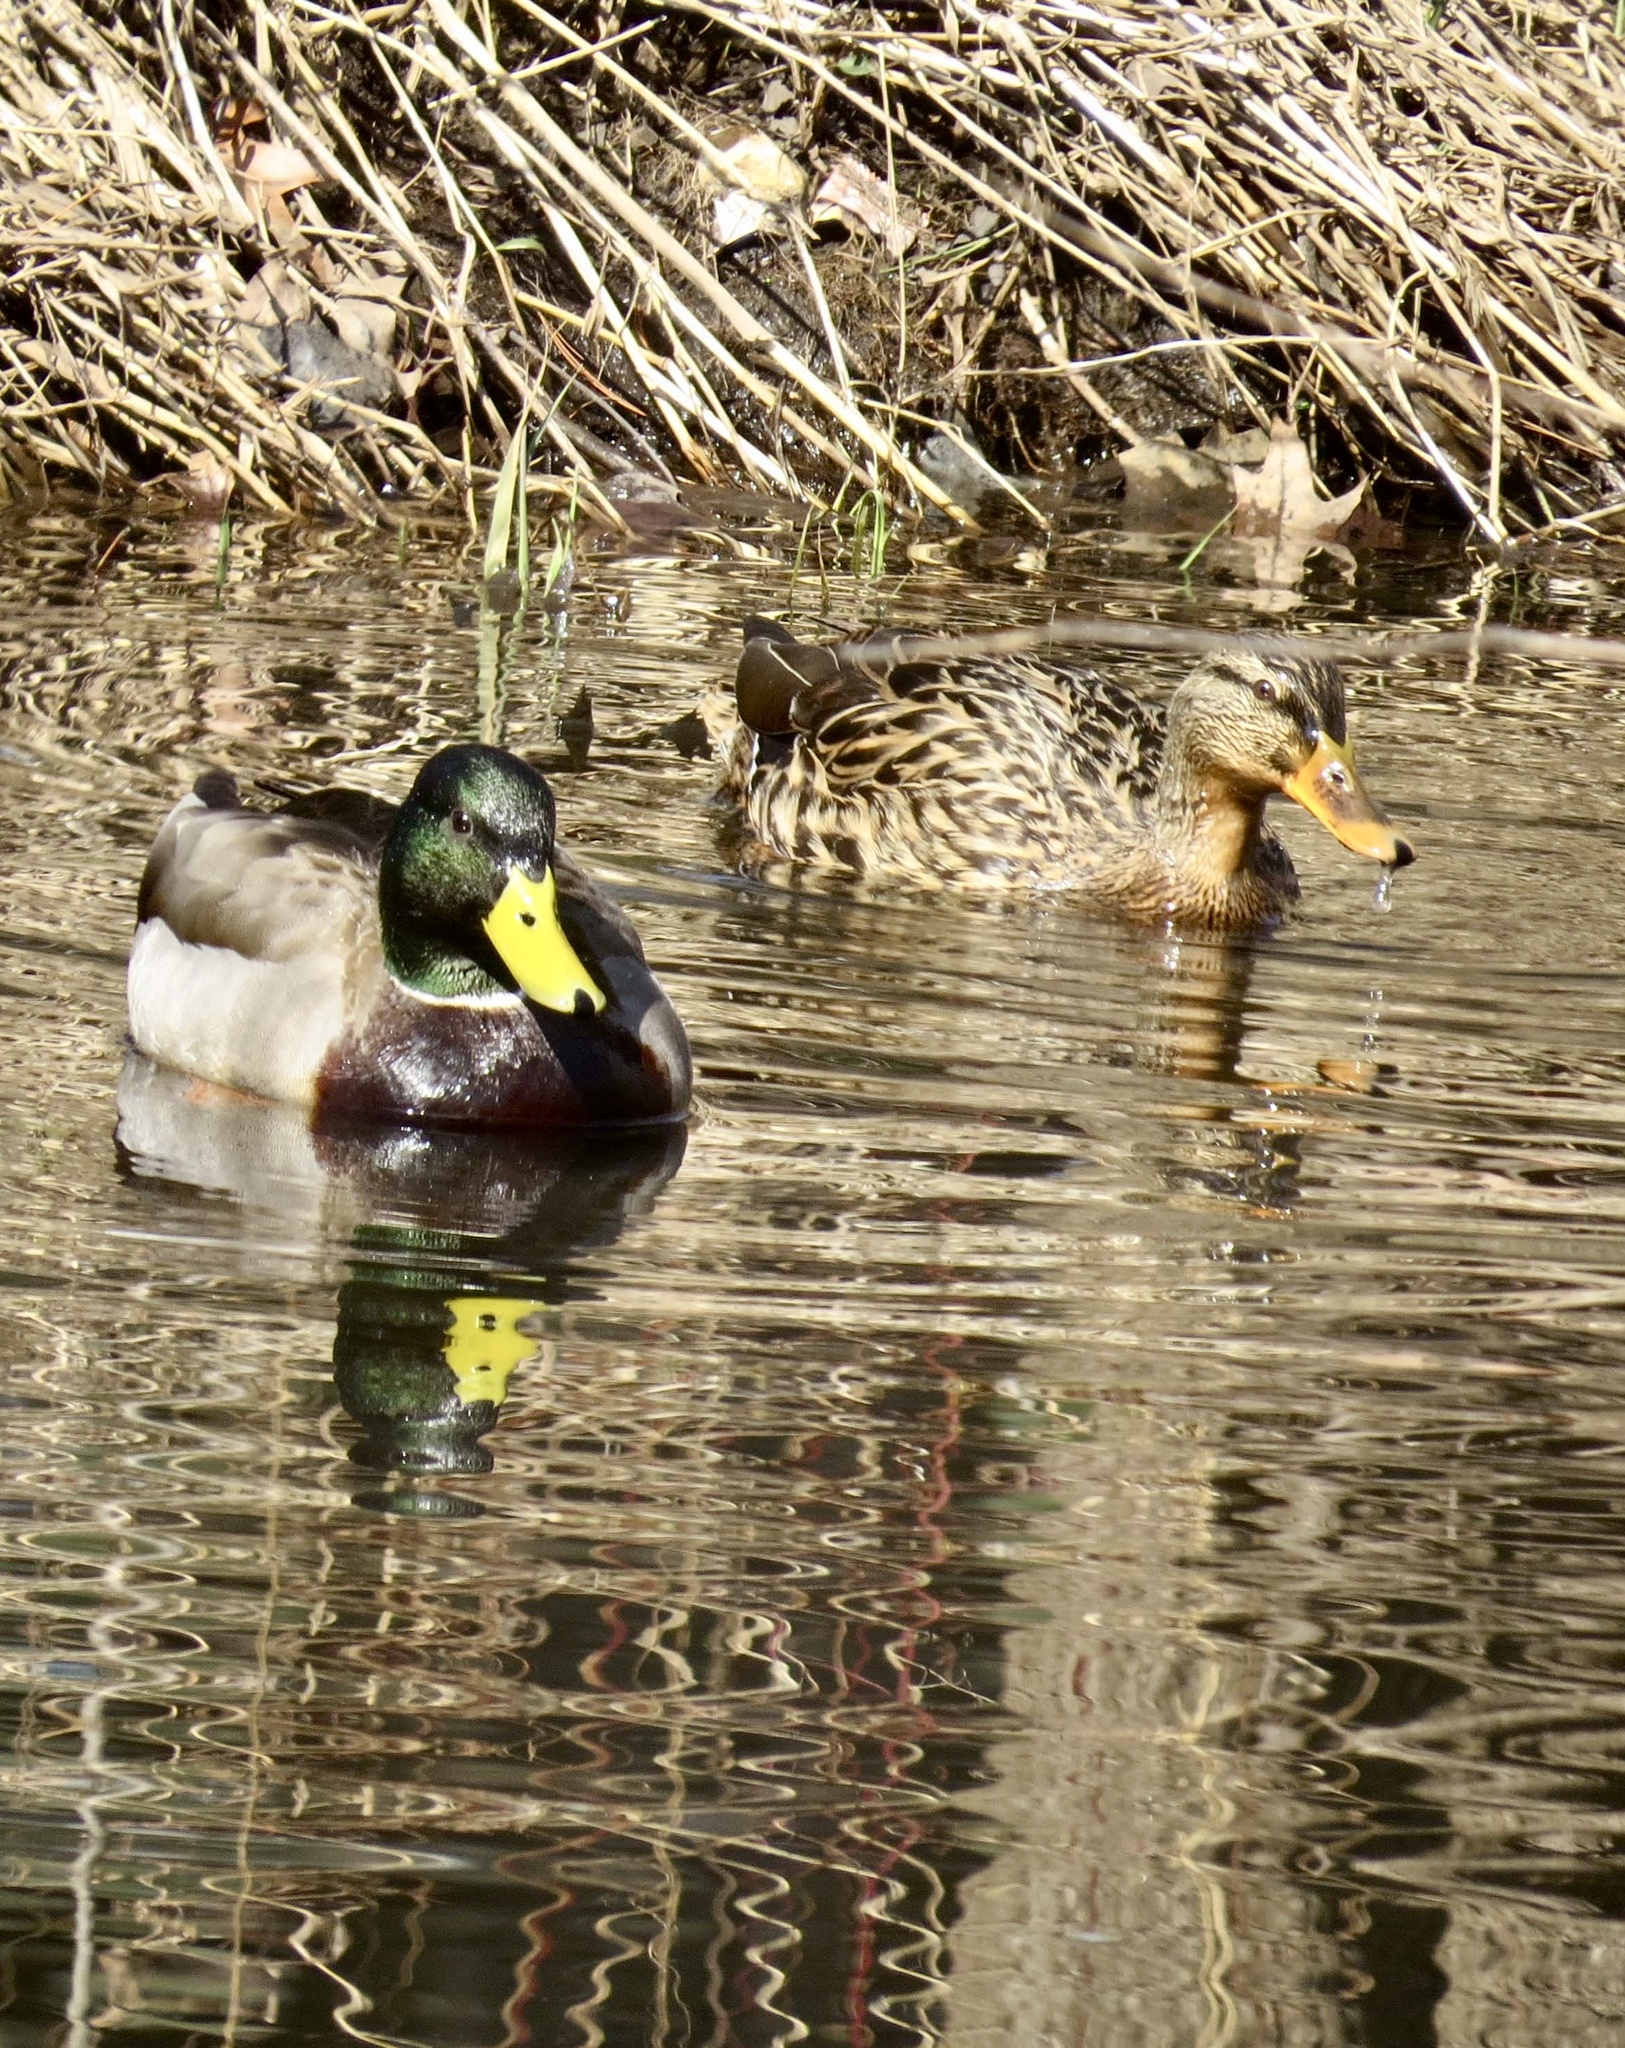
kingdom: Animalia
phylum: Chordata
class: Aves
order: Anseriformes
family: Anatidae
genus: Anas
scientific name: Anas platyrhynchos
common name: Mallard
